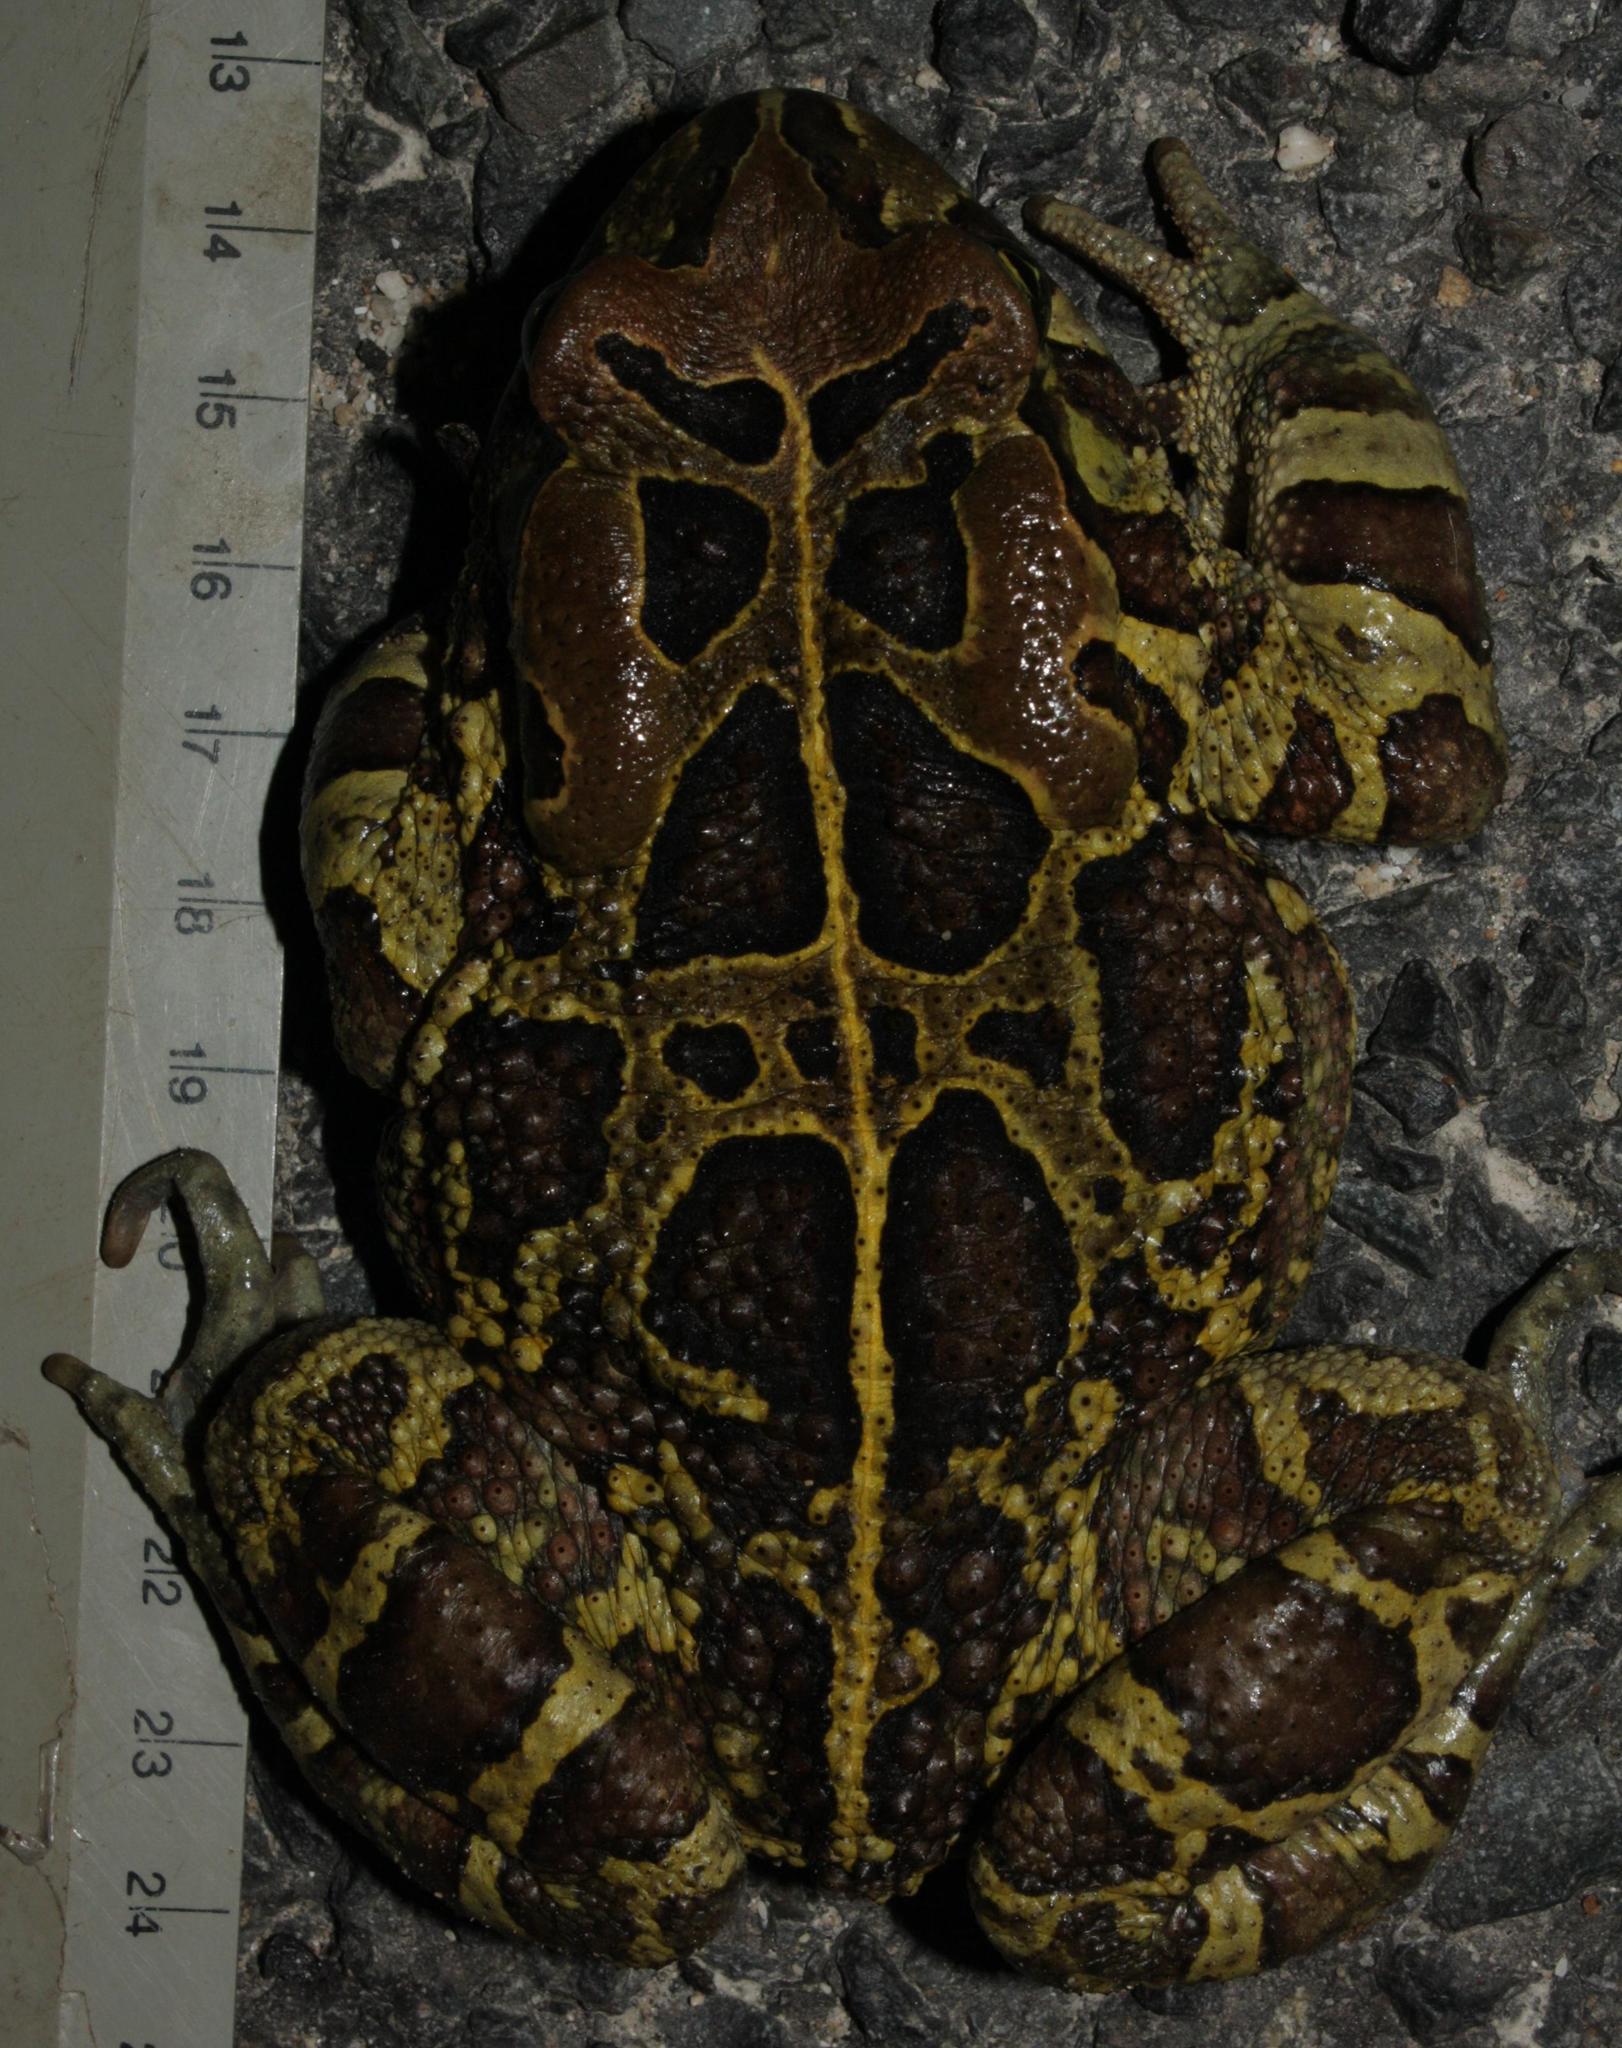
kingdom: Animalia
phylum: Chordata
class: Amphibia
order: Anura
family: Bufonidae
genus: Sclerophrys
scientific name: Sclerophrys pantherina
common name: Panther toad
